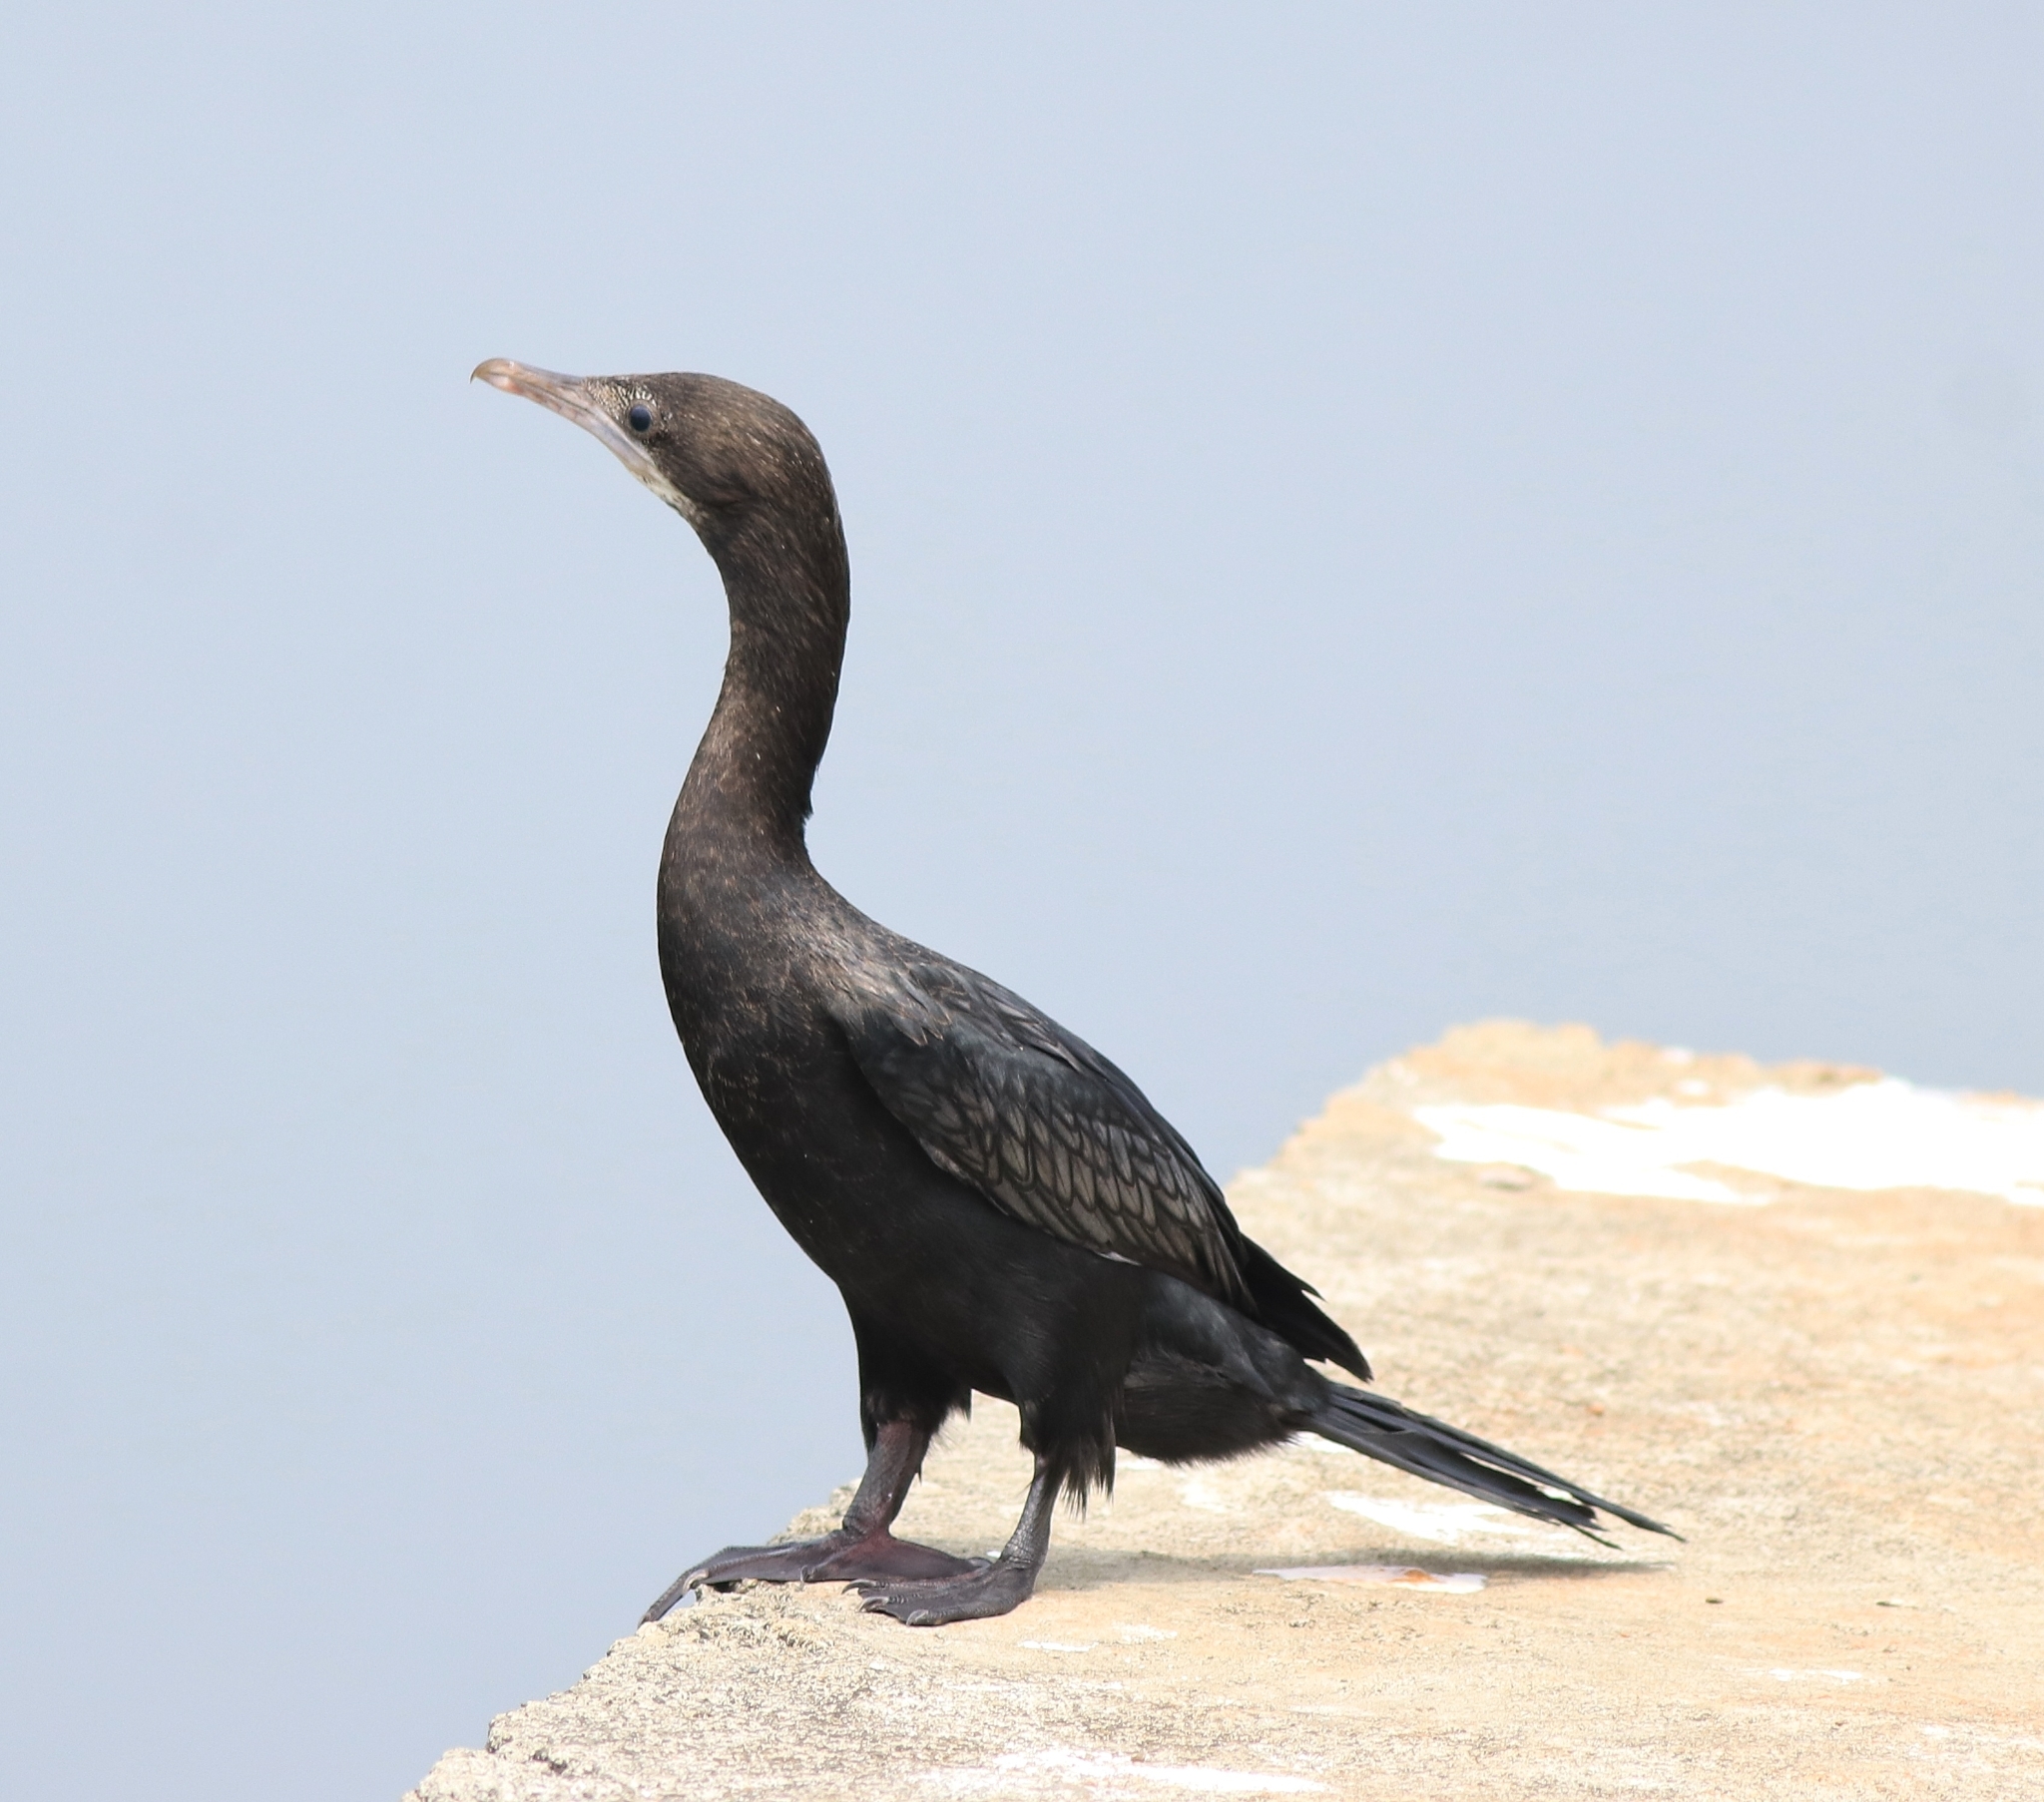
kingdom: Animalia
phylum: Chordata
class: Aves
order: Suliformes
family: Phalacrocoracidae
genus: Microcarbo
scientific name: Microcarbo niger
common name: Little cormorant
